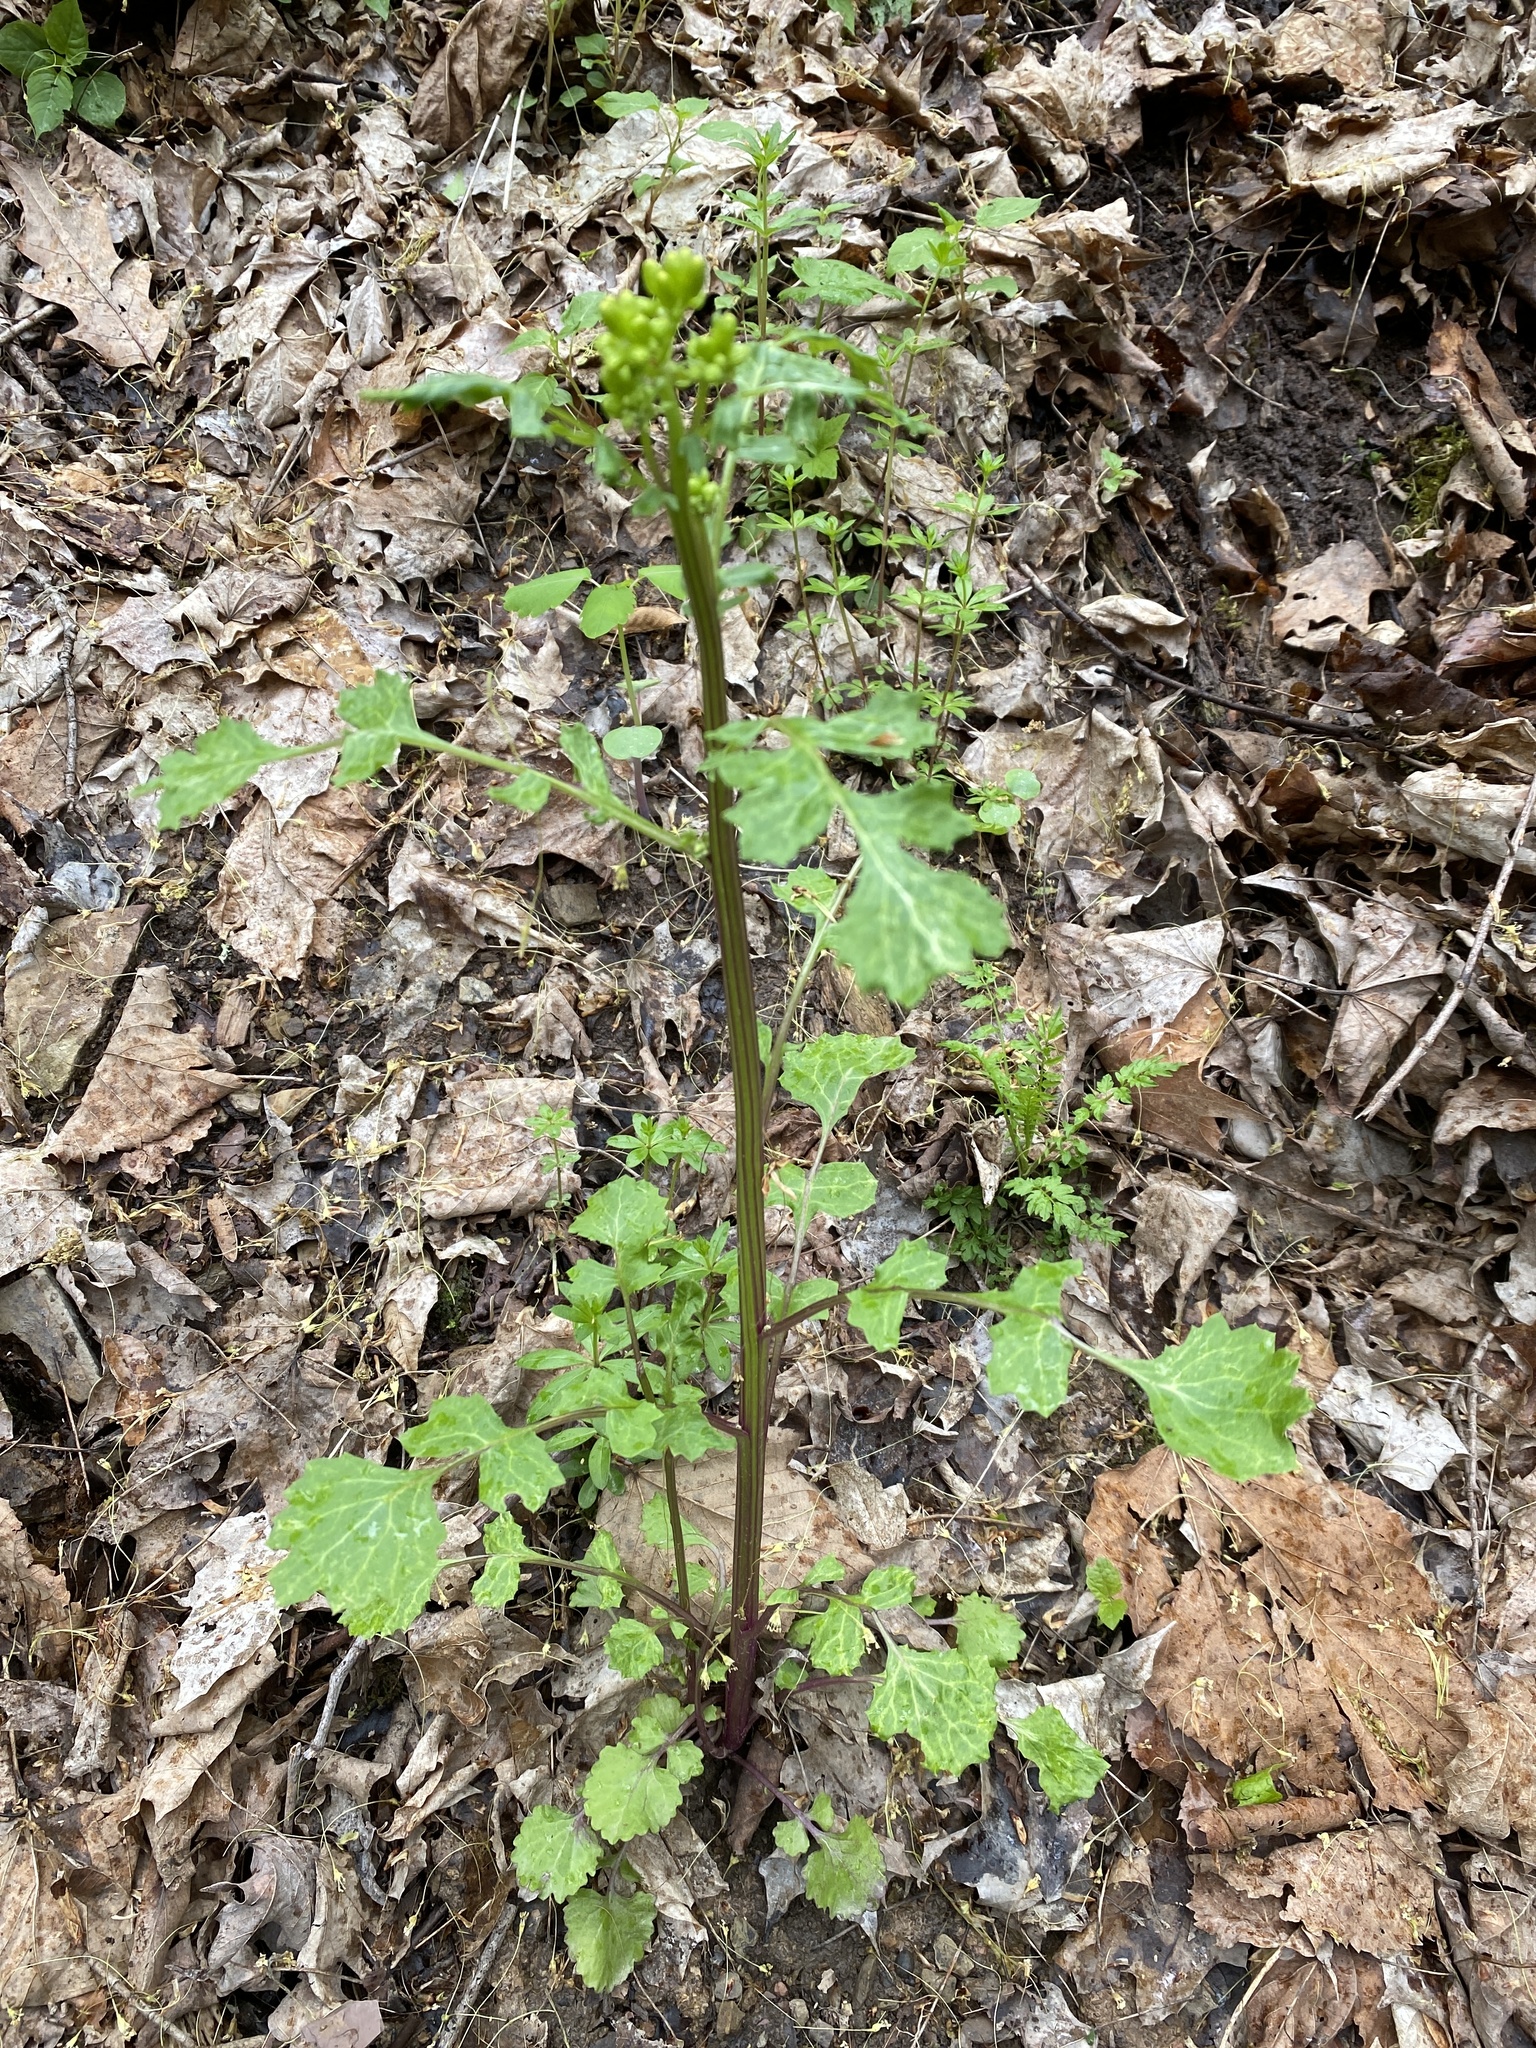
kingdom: Plantae
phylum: Tracheophyta
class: Magnoliopsida
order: Asterales
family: Asteraceae
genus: Packera
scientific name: Packera glabella
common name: Butterweed
